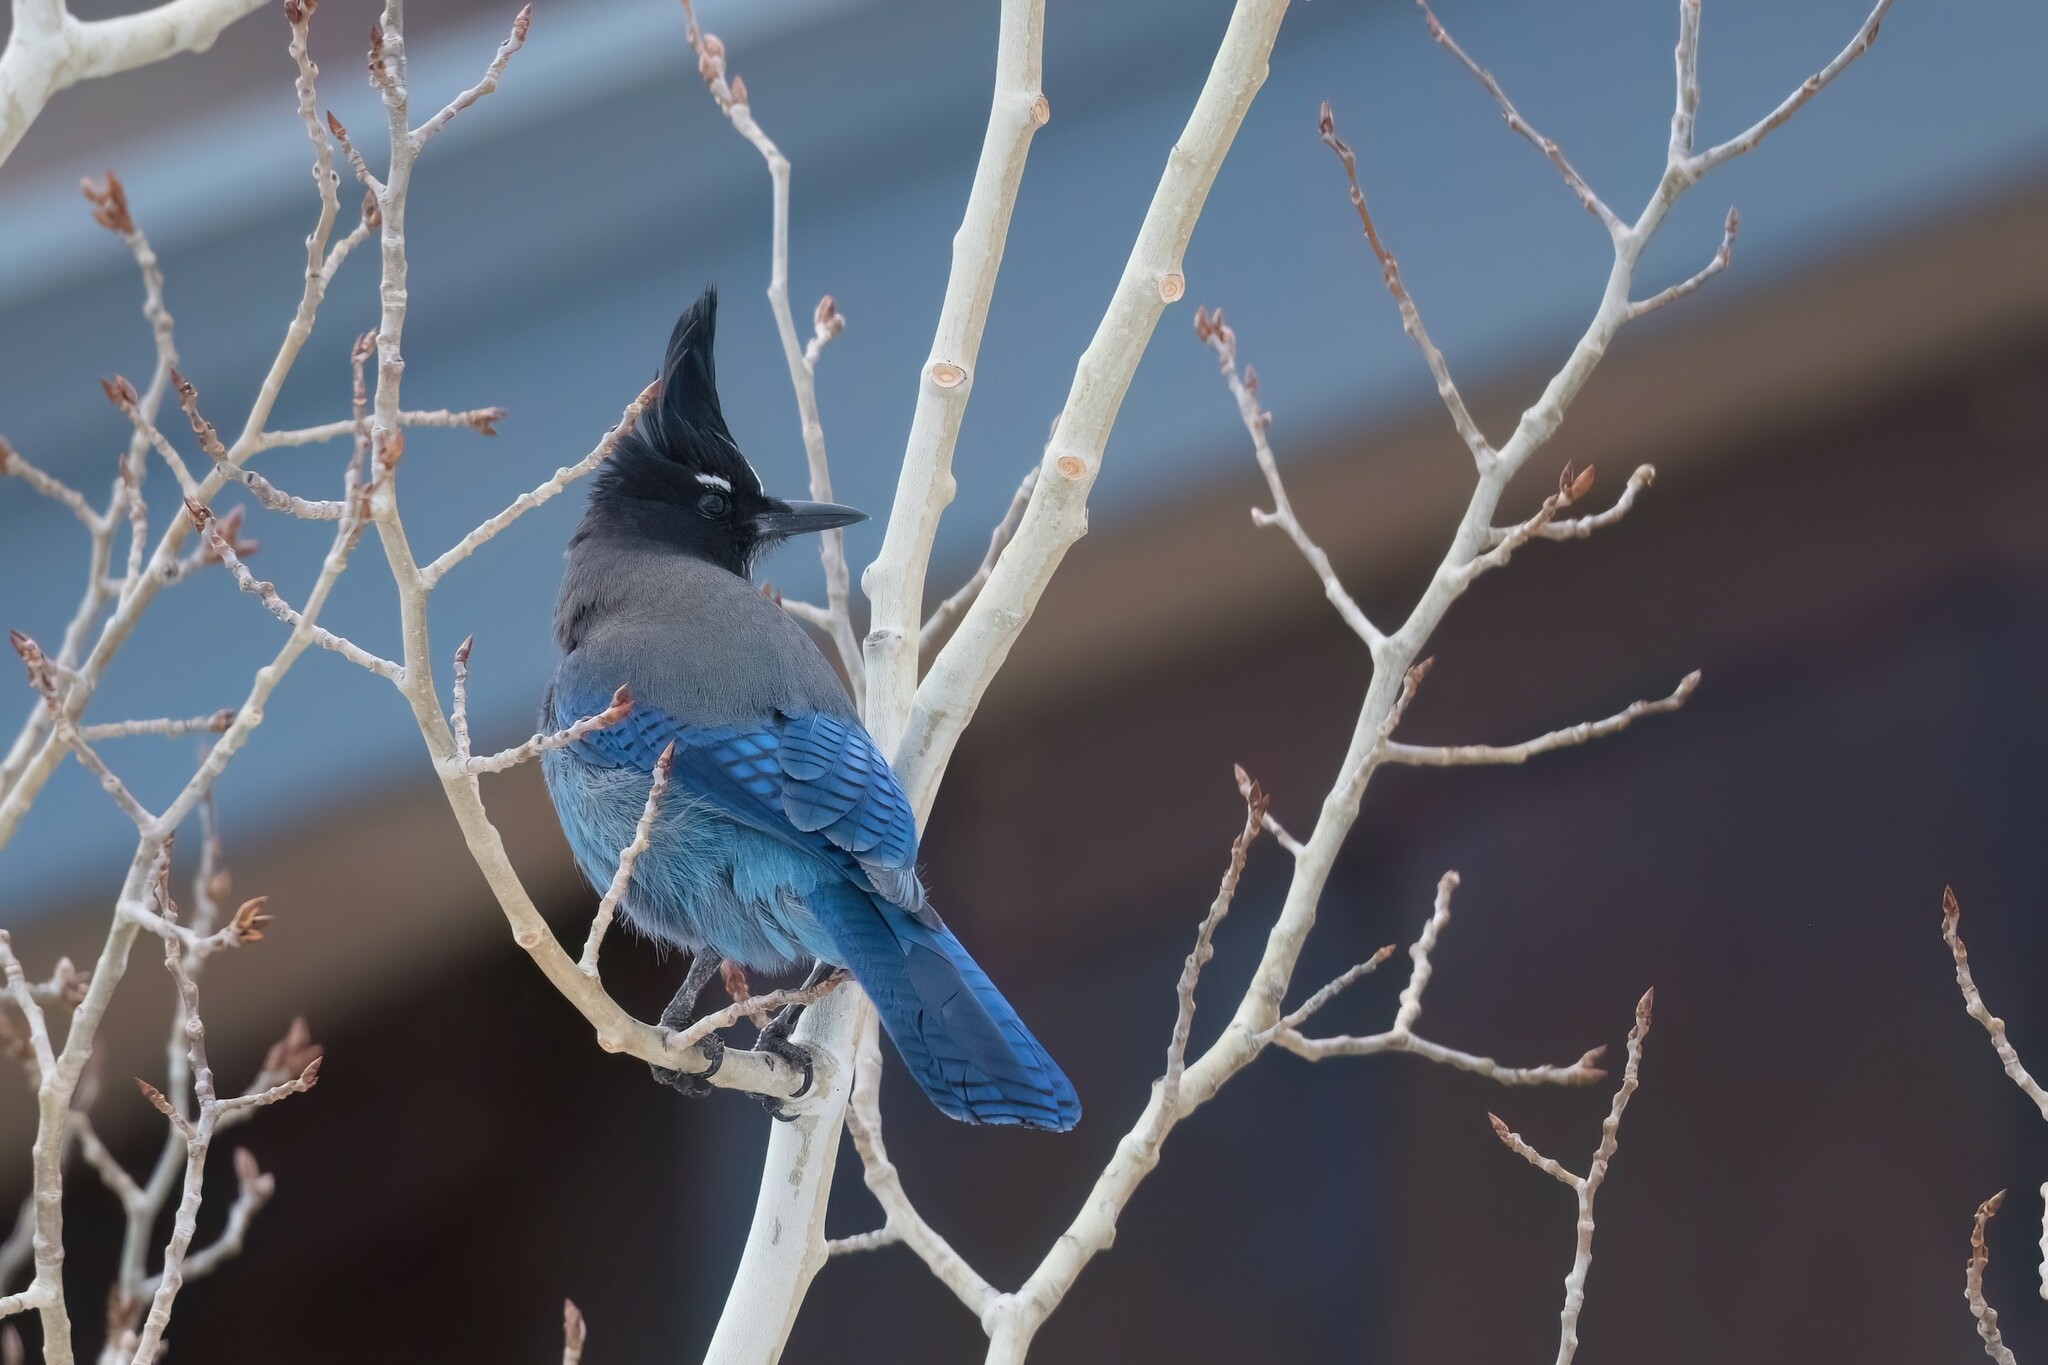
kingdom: Animalia
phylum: Chordata
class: Aves
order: Passeriformes
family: Corvidae
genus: Cyanocitta
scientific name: Cyanocitta stelleri
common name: Steller's jay
